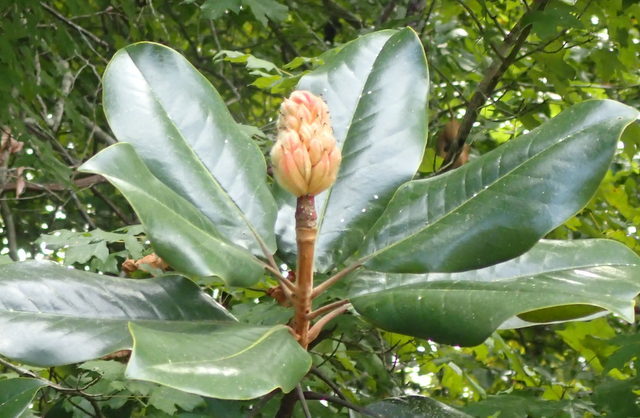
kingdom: Plantae
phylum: Tracheophyta
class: Magnoliopsida
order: Magnoliales
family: Magnoliaceae
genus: Magnolia
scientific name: Magnolia grandiflora
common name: Southern magnolia
